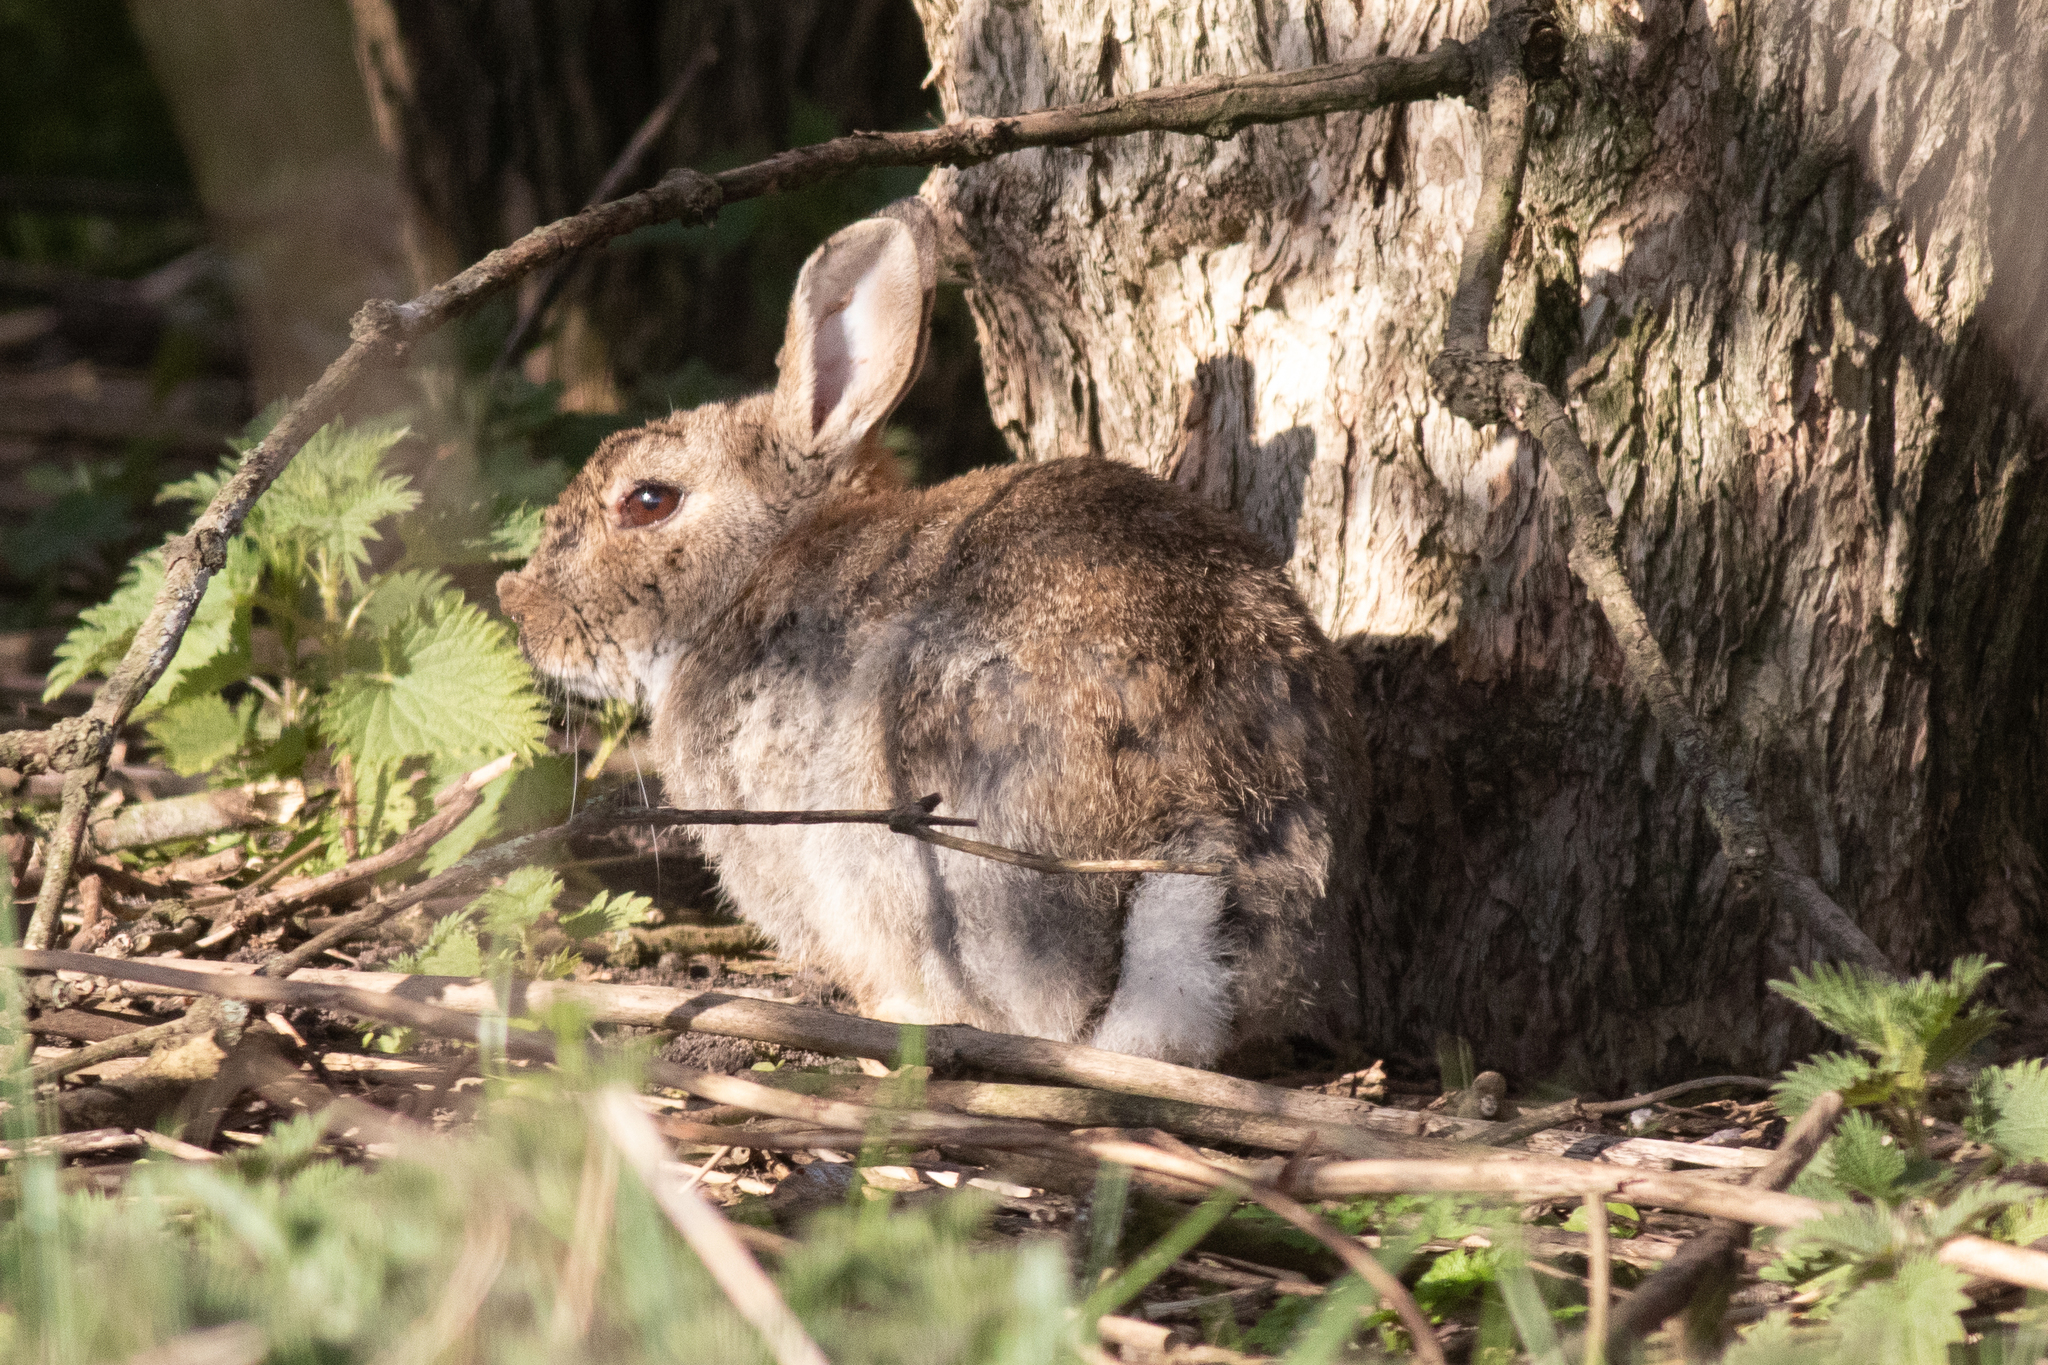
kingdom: Animalia
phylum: Chordata
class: Mammalia
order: Lagomorpha
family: Leporidae
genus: Oryctolagus
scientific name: Oryctolagus cuniculus
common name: European rabbit
